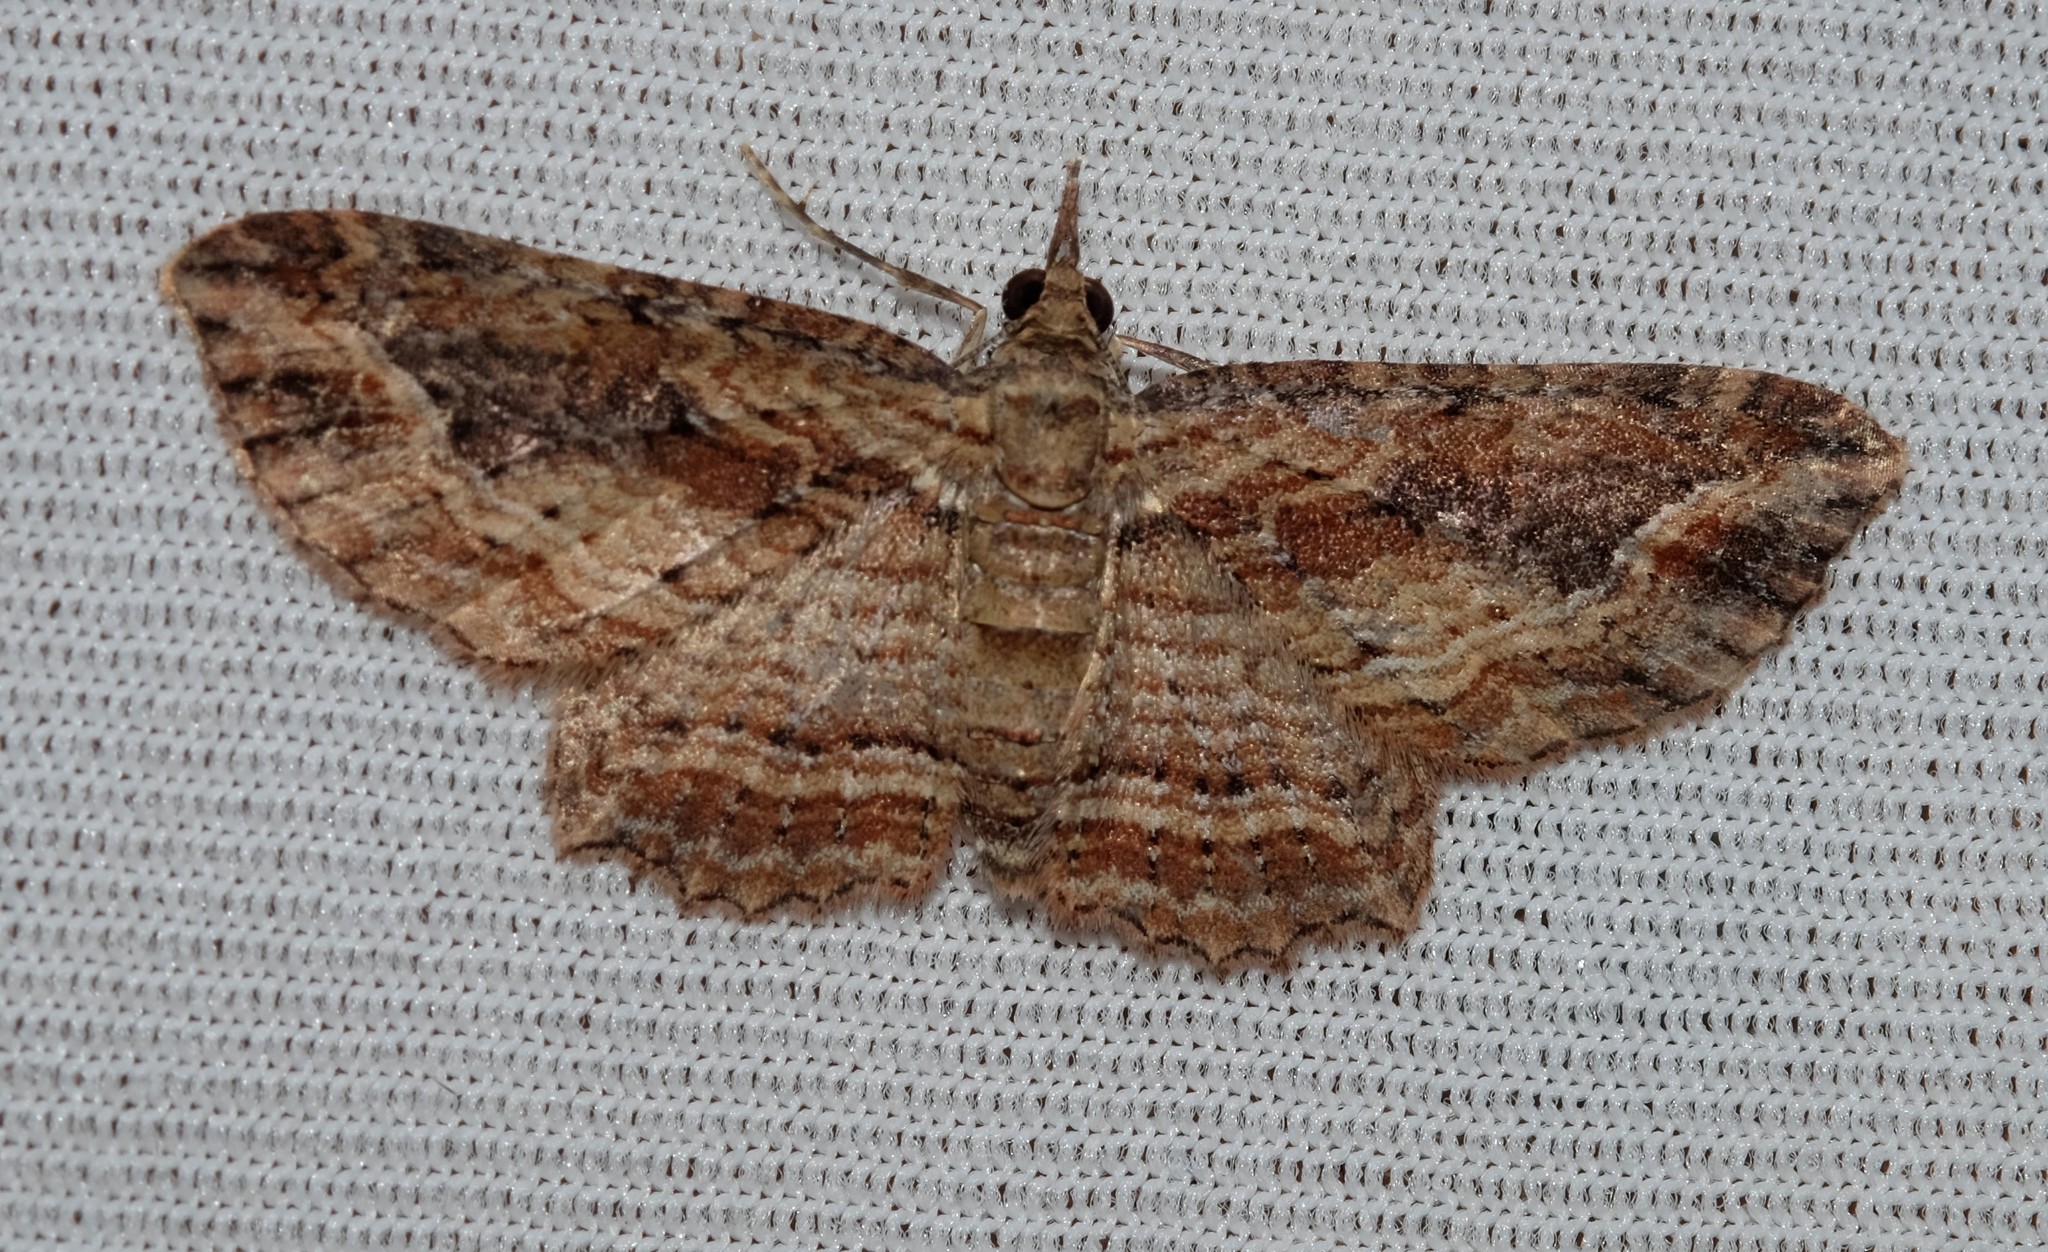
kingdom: Animalia
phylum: Arthropoda
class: Insecta
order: Lepidoptera
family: Geometridae
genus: Chloroclystis
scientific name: Chloroclystis filata
